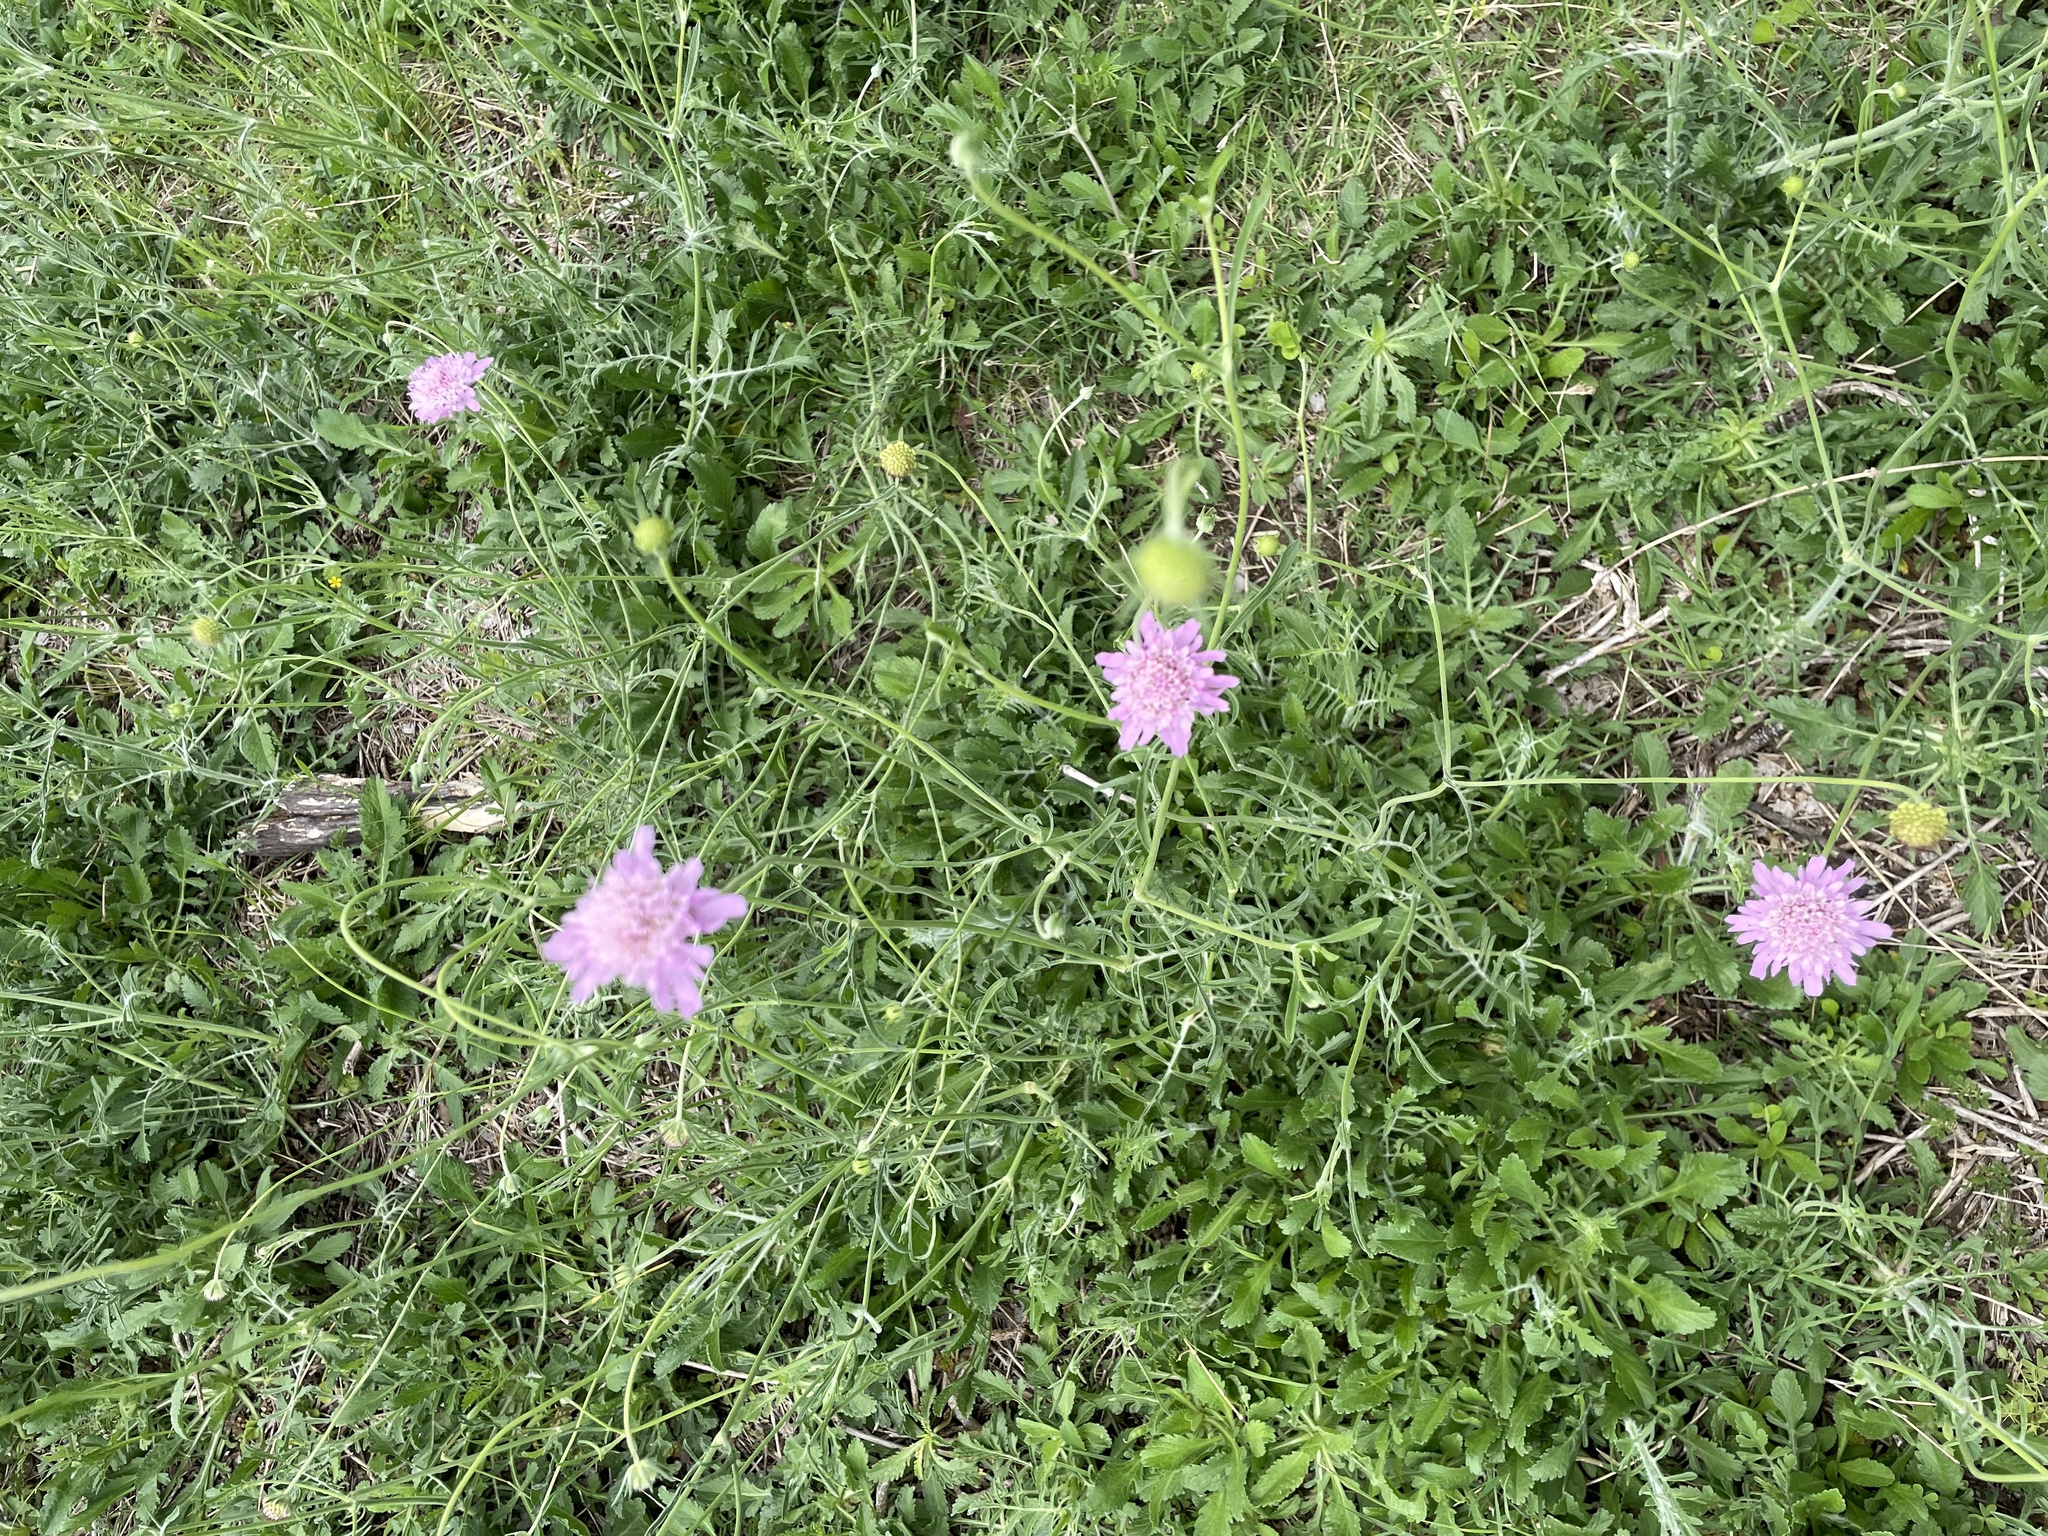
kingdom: Plantae
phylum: Tracheophyta
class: Magnoliopsida
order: Dipsacales
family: Caprifoliaceae
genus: Sixalix
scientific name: Sixalix atropurpurea
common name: Sweet scabious
